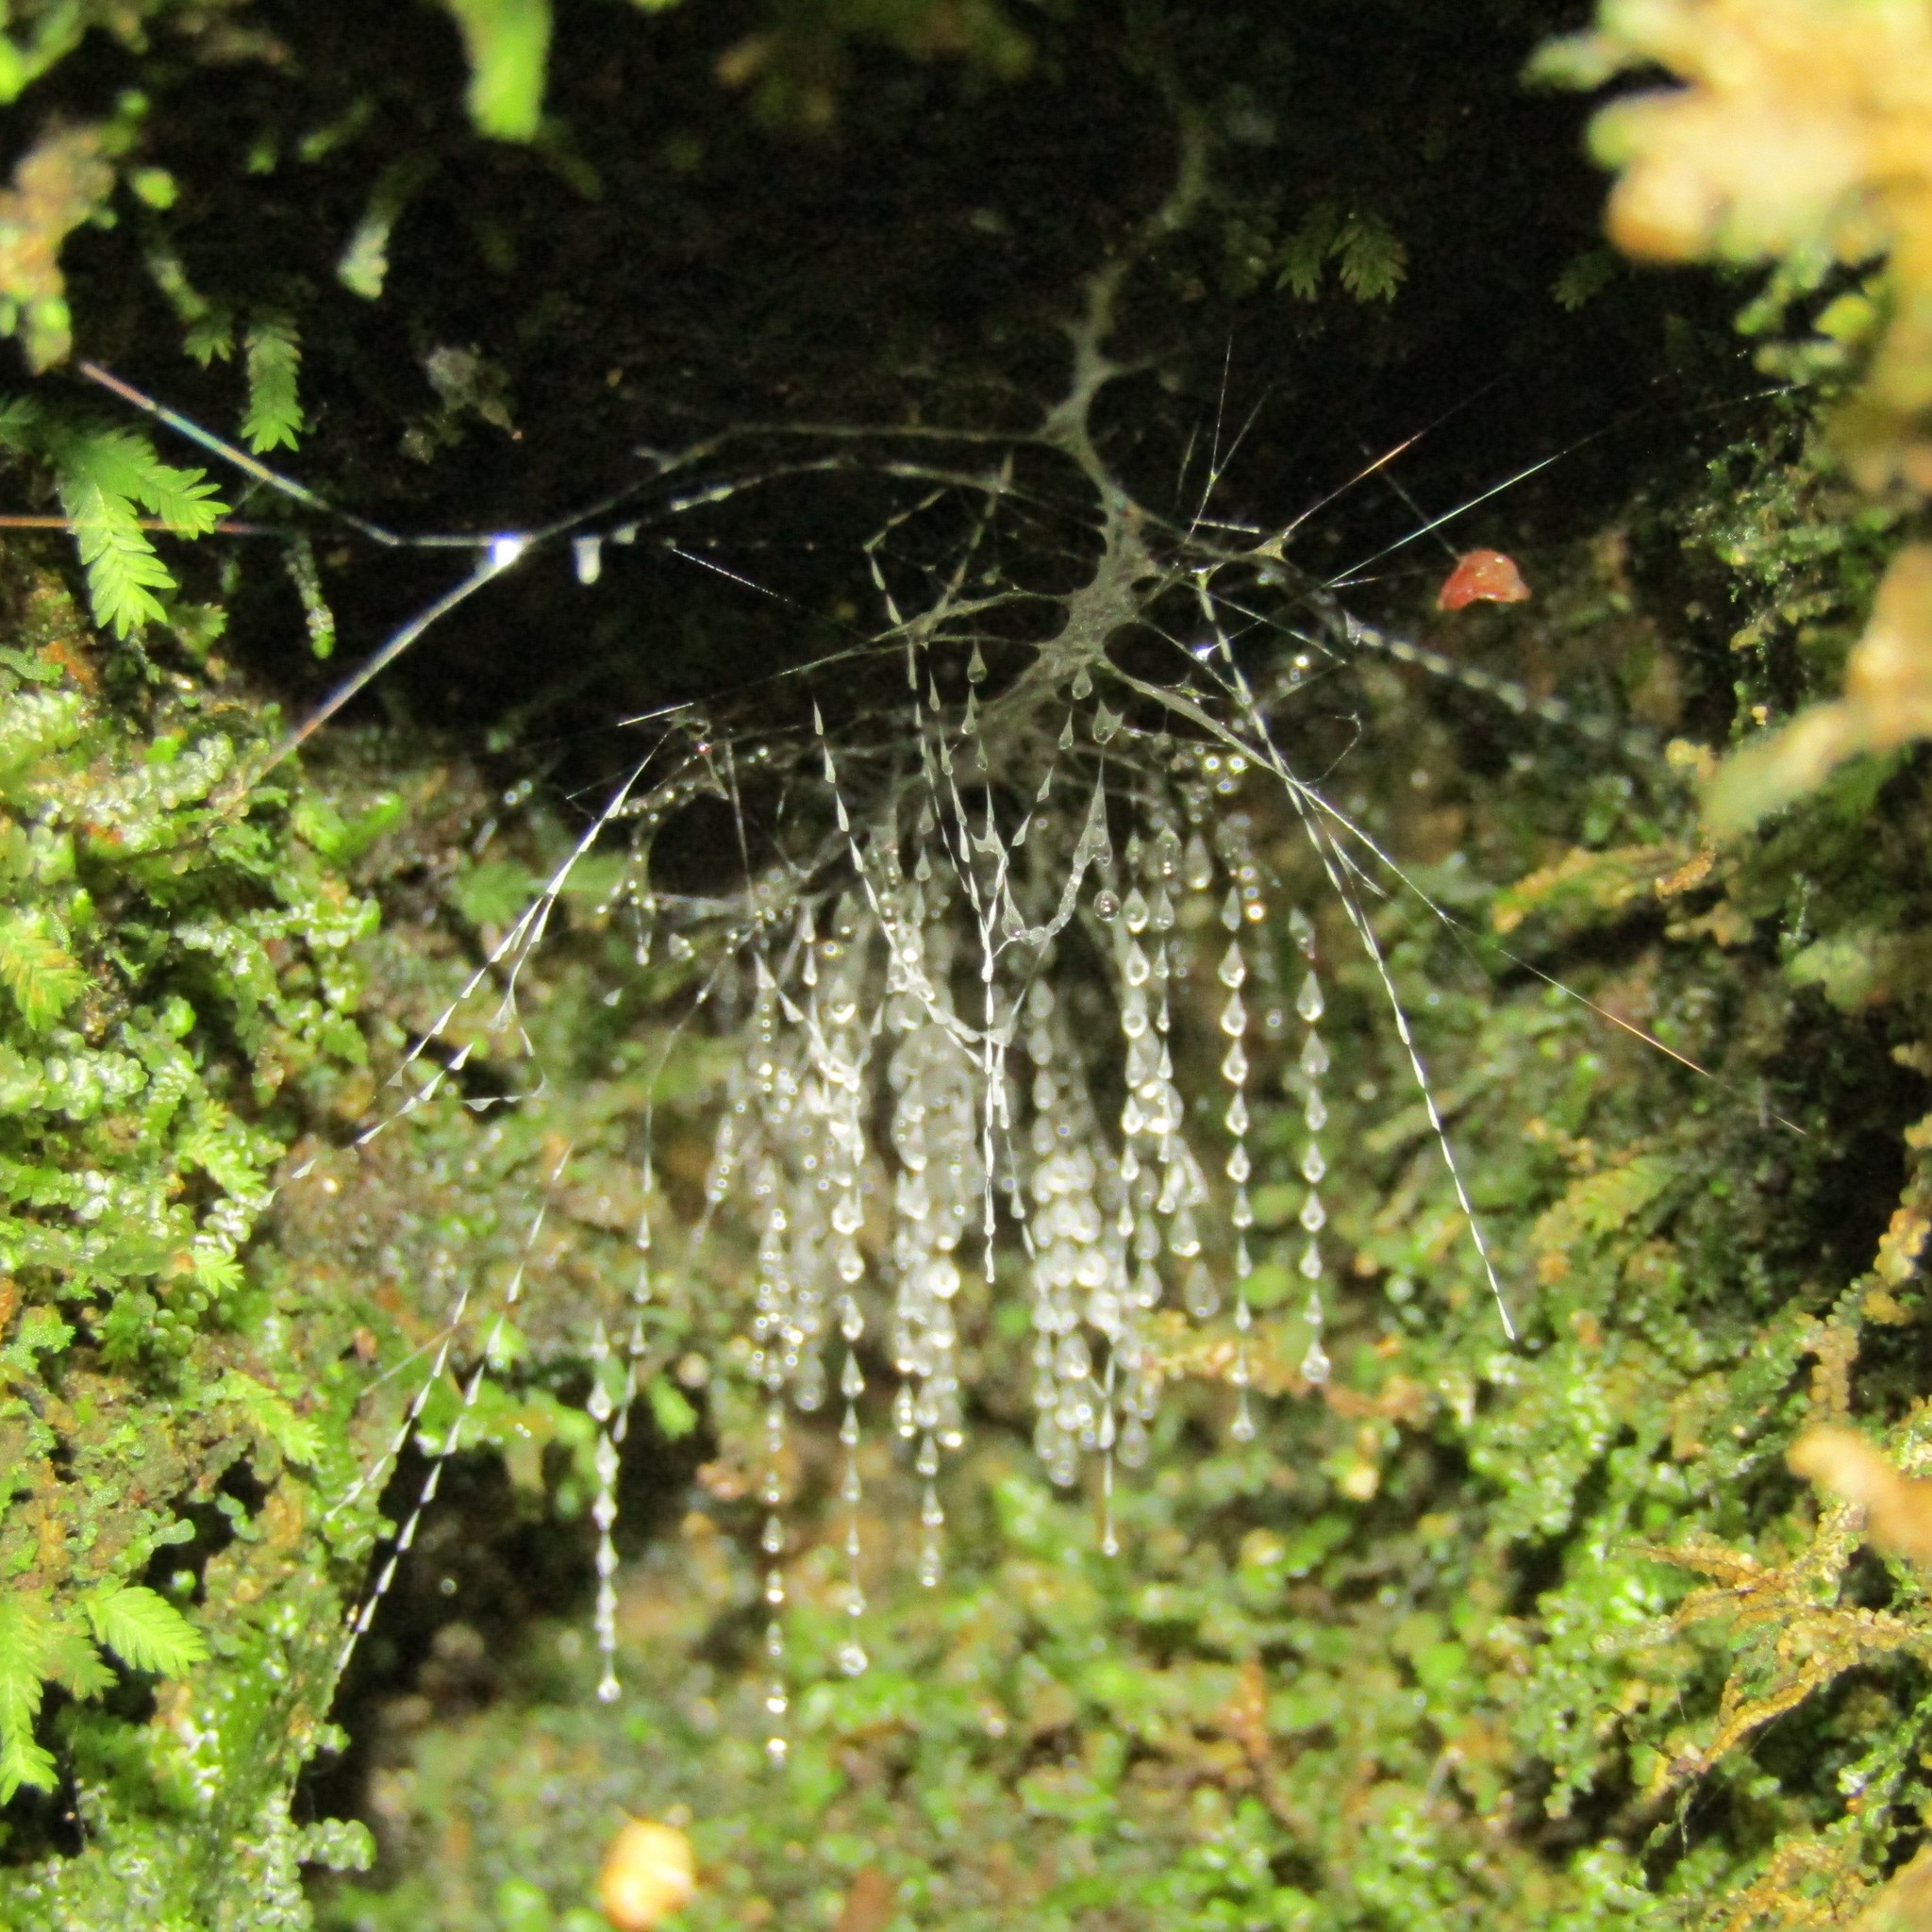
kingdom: Animalia
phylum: Arthropoda
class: Insecta
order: Diptera
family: Keroplatidae
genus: Arachnocampa
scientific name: Arachnocampa luminosa
